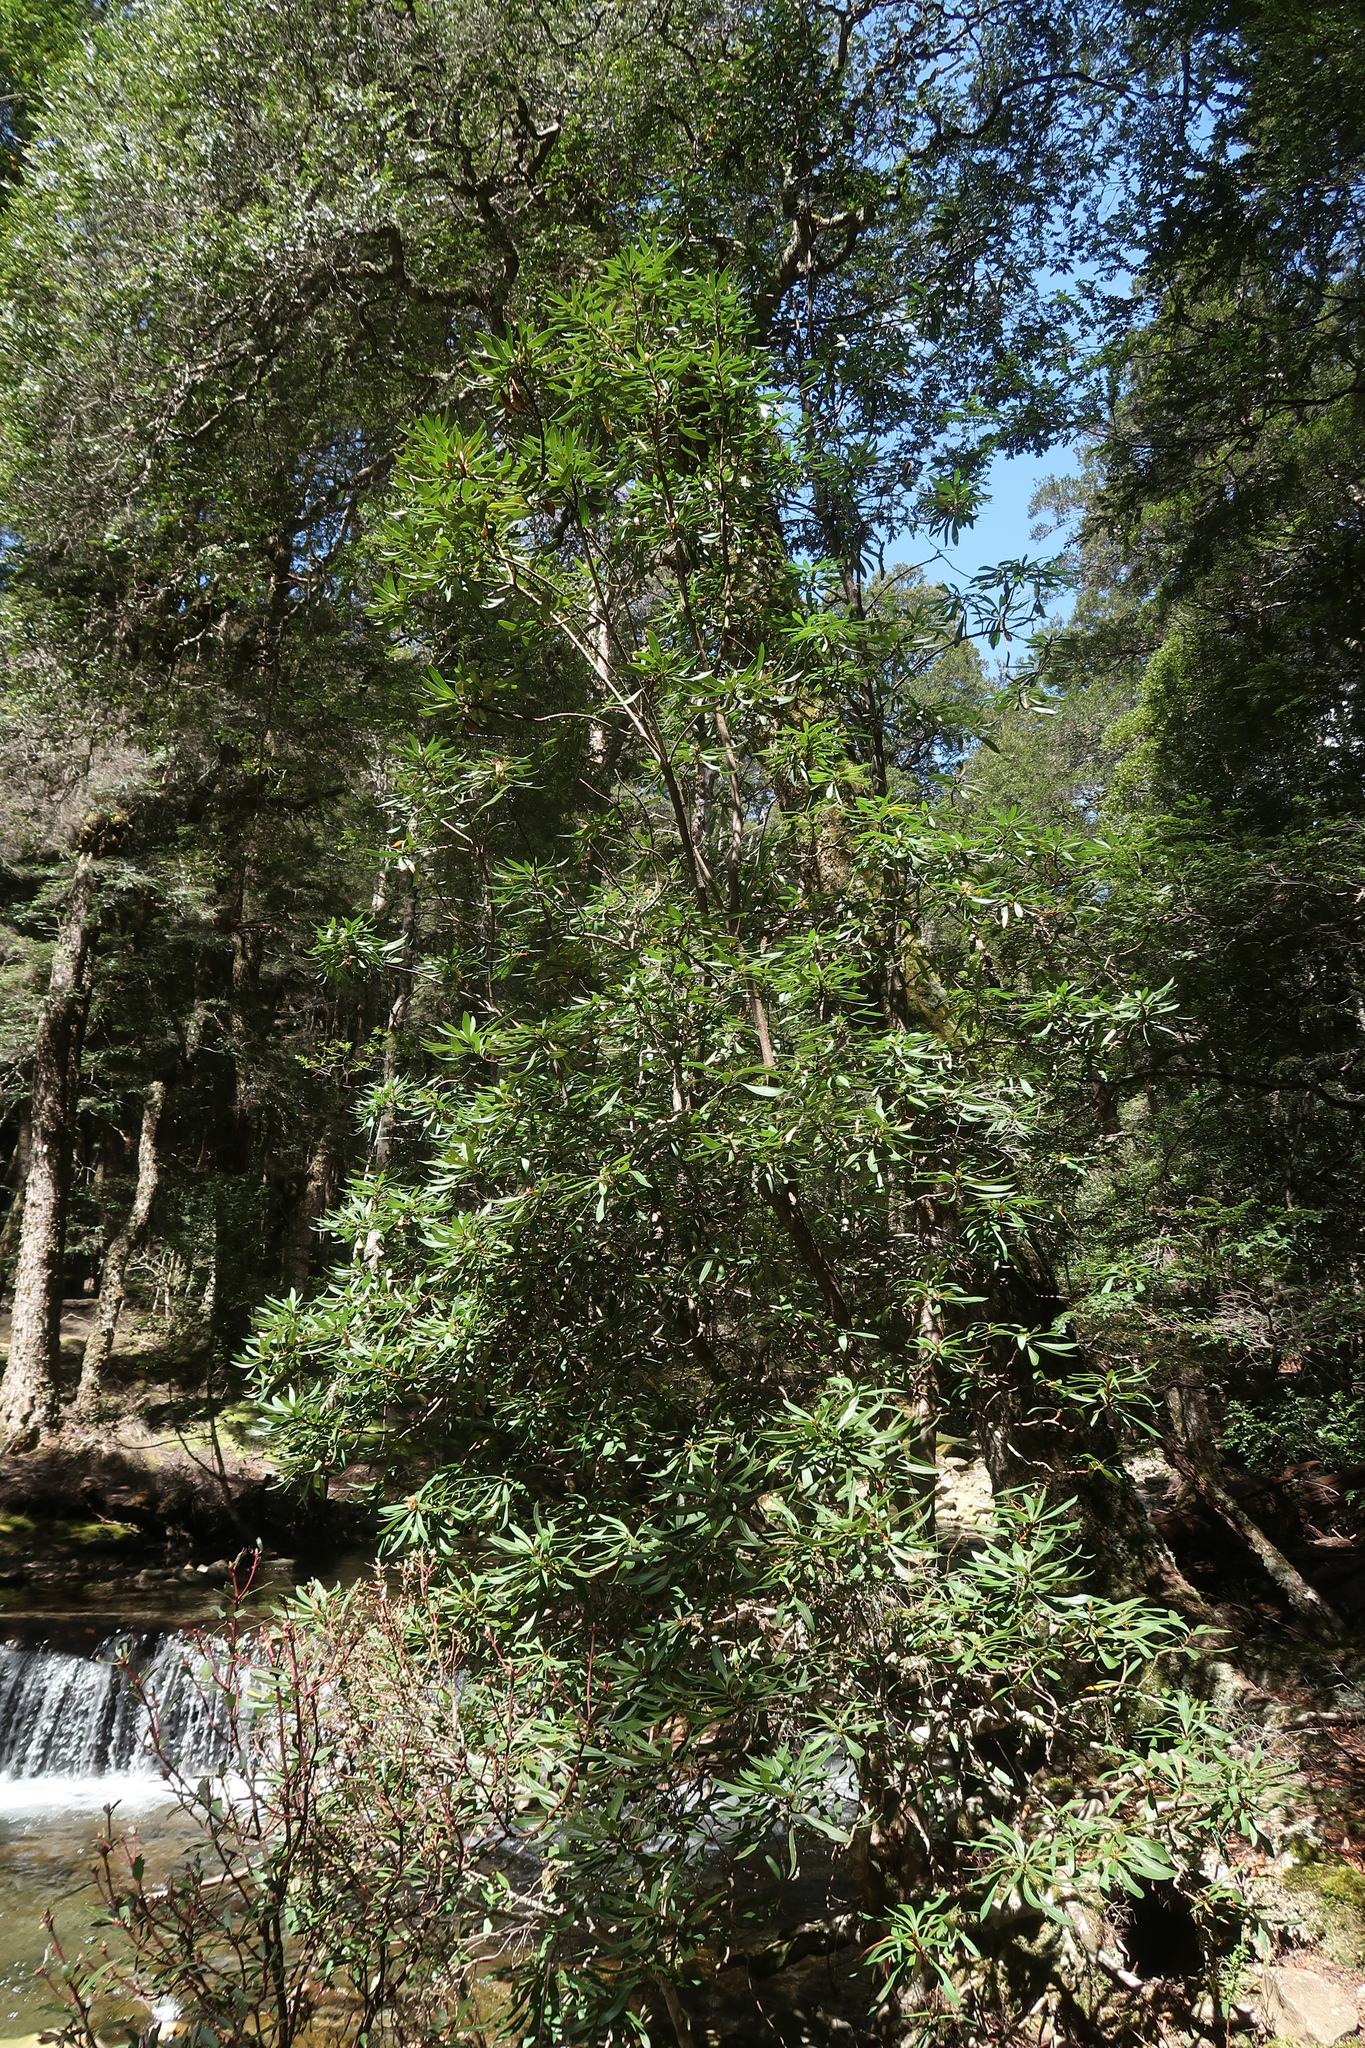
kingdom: Plantae
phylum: Tracheophyta
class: Magnoliopsida
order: Proteales
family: Proteaceae
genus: Telopea
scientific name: Telopea truncata
